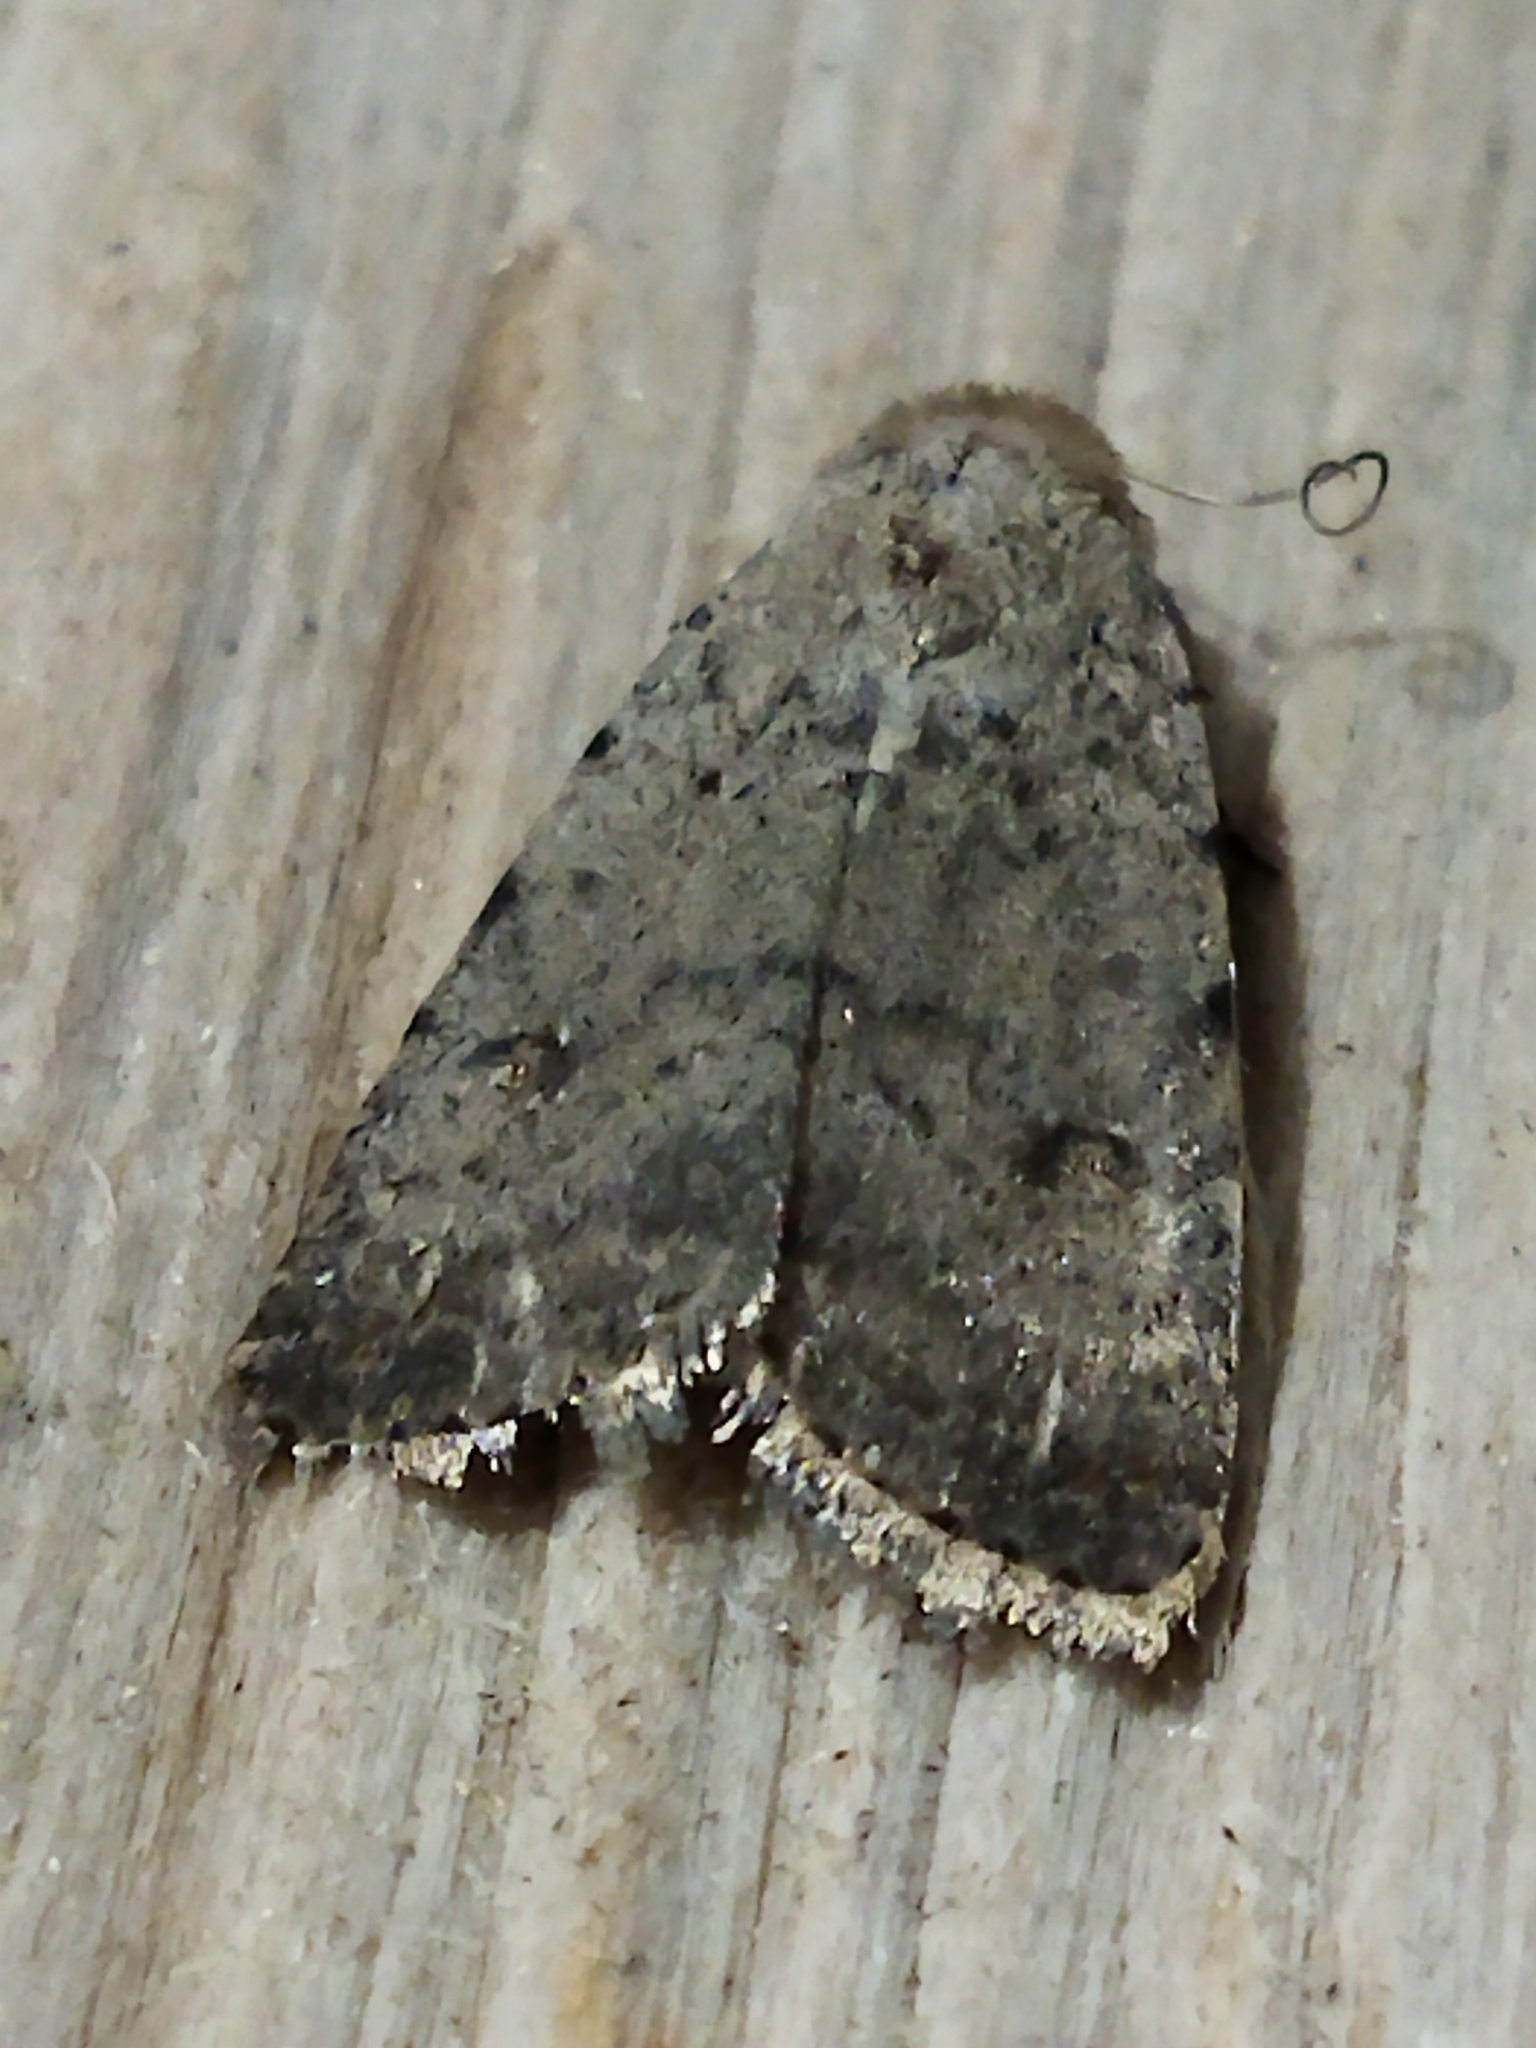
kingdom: Animalia
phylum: Arthropoda
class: Insecta
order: Lepidoptera
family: Noctuidae
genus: Caradrina
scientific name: Caradrina clavipalpis
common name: Pale mottled willow
